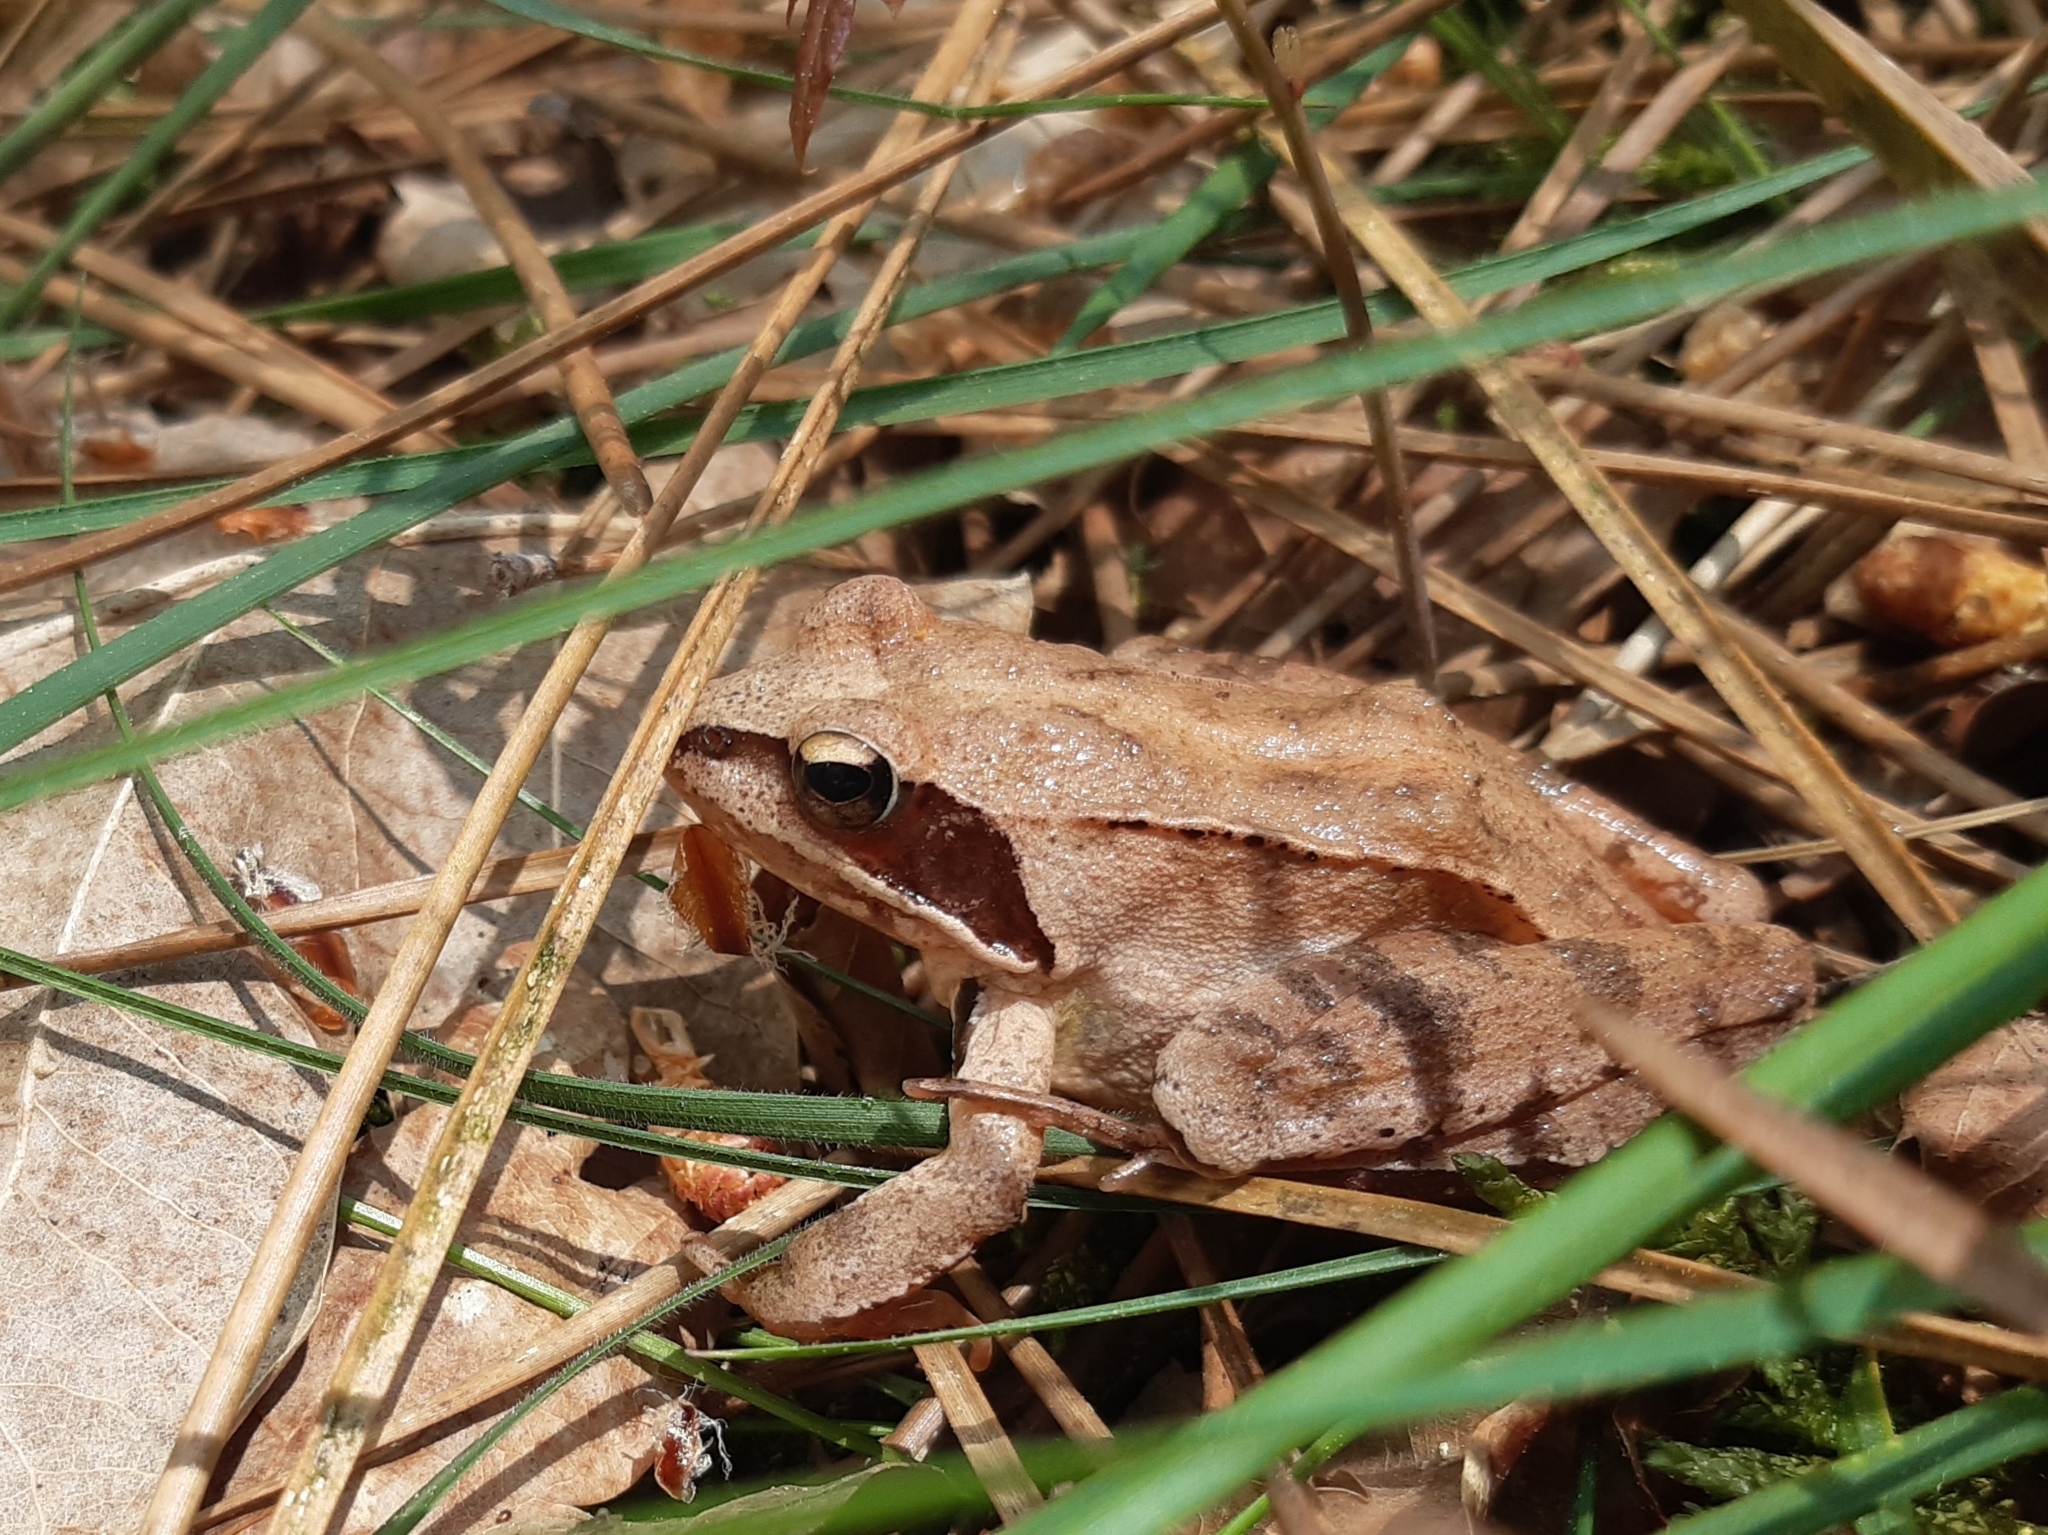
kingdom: Animalia
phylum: Chordata
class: Amphibia
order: Anura
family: Ranidae
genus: Rana
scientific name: Rana dalmatina
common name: Agile frog
